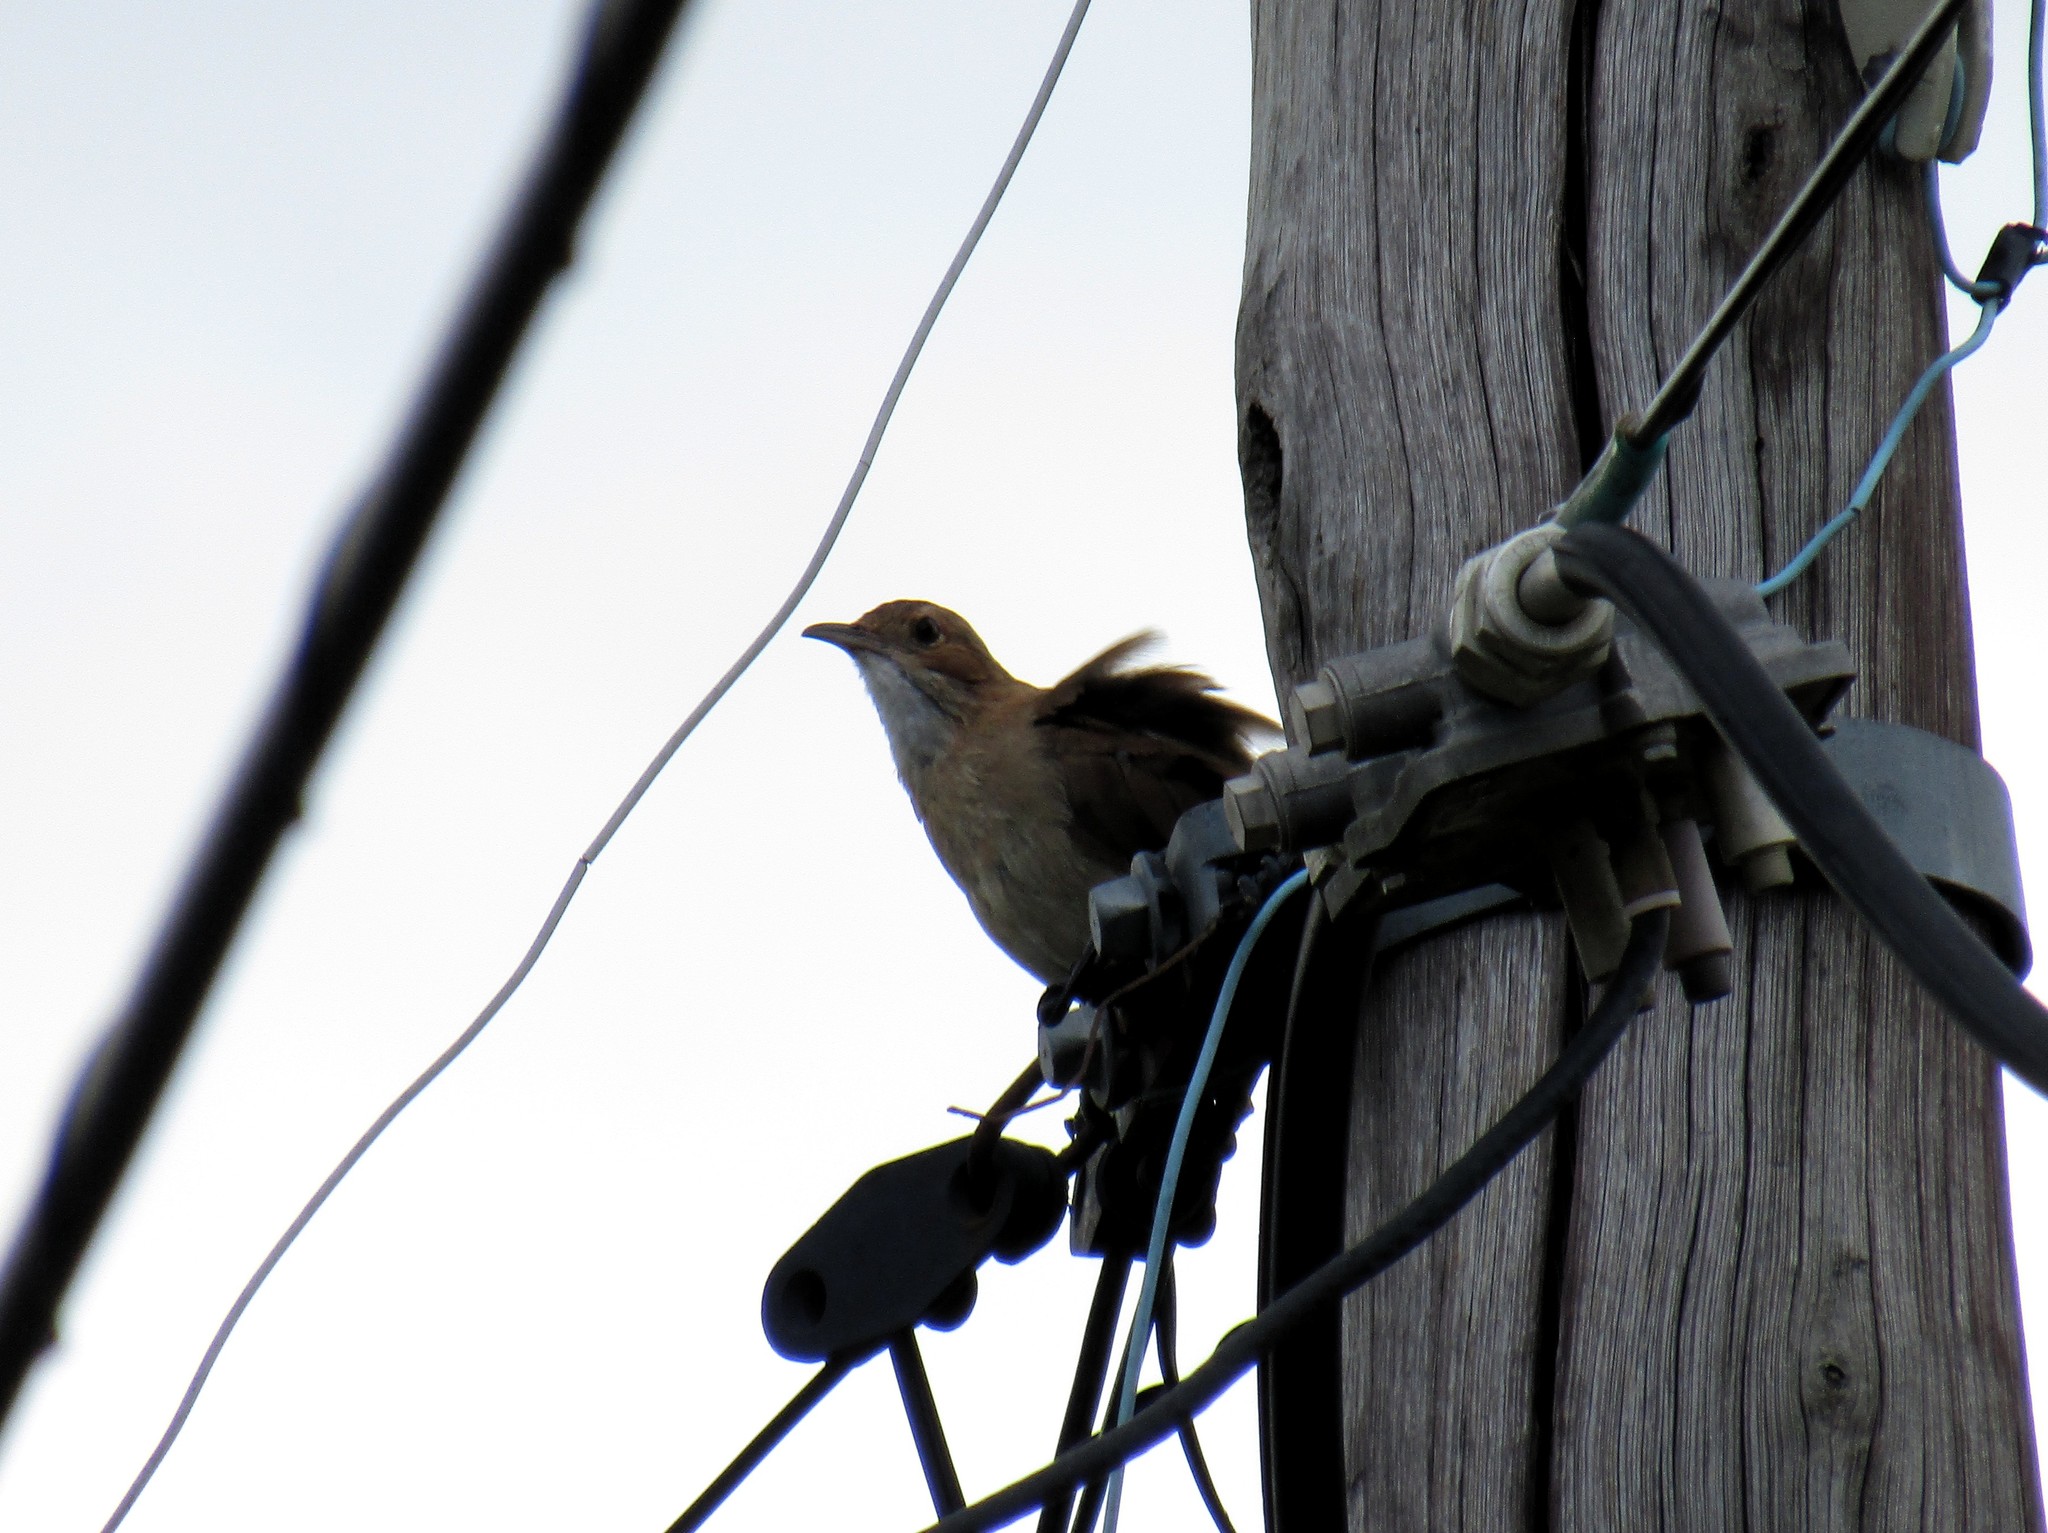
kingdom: Animalia
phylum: Chordata
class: Aves
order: Passeriformes
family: Furnariidae
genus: Furnarius
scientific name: Furnarius rufus
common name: Rufous hornero
